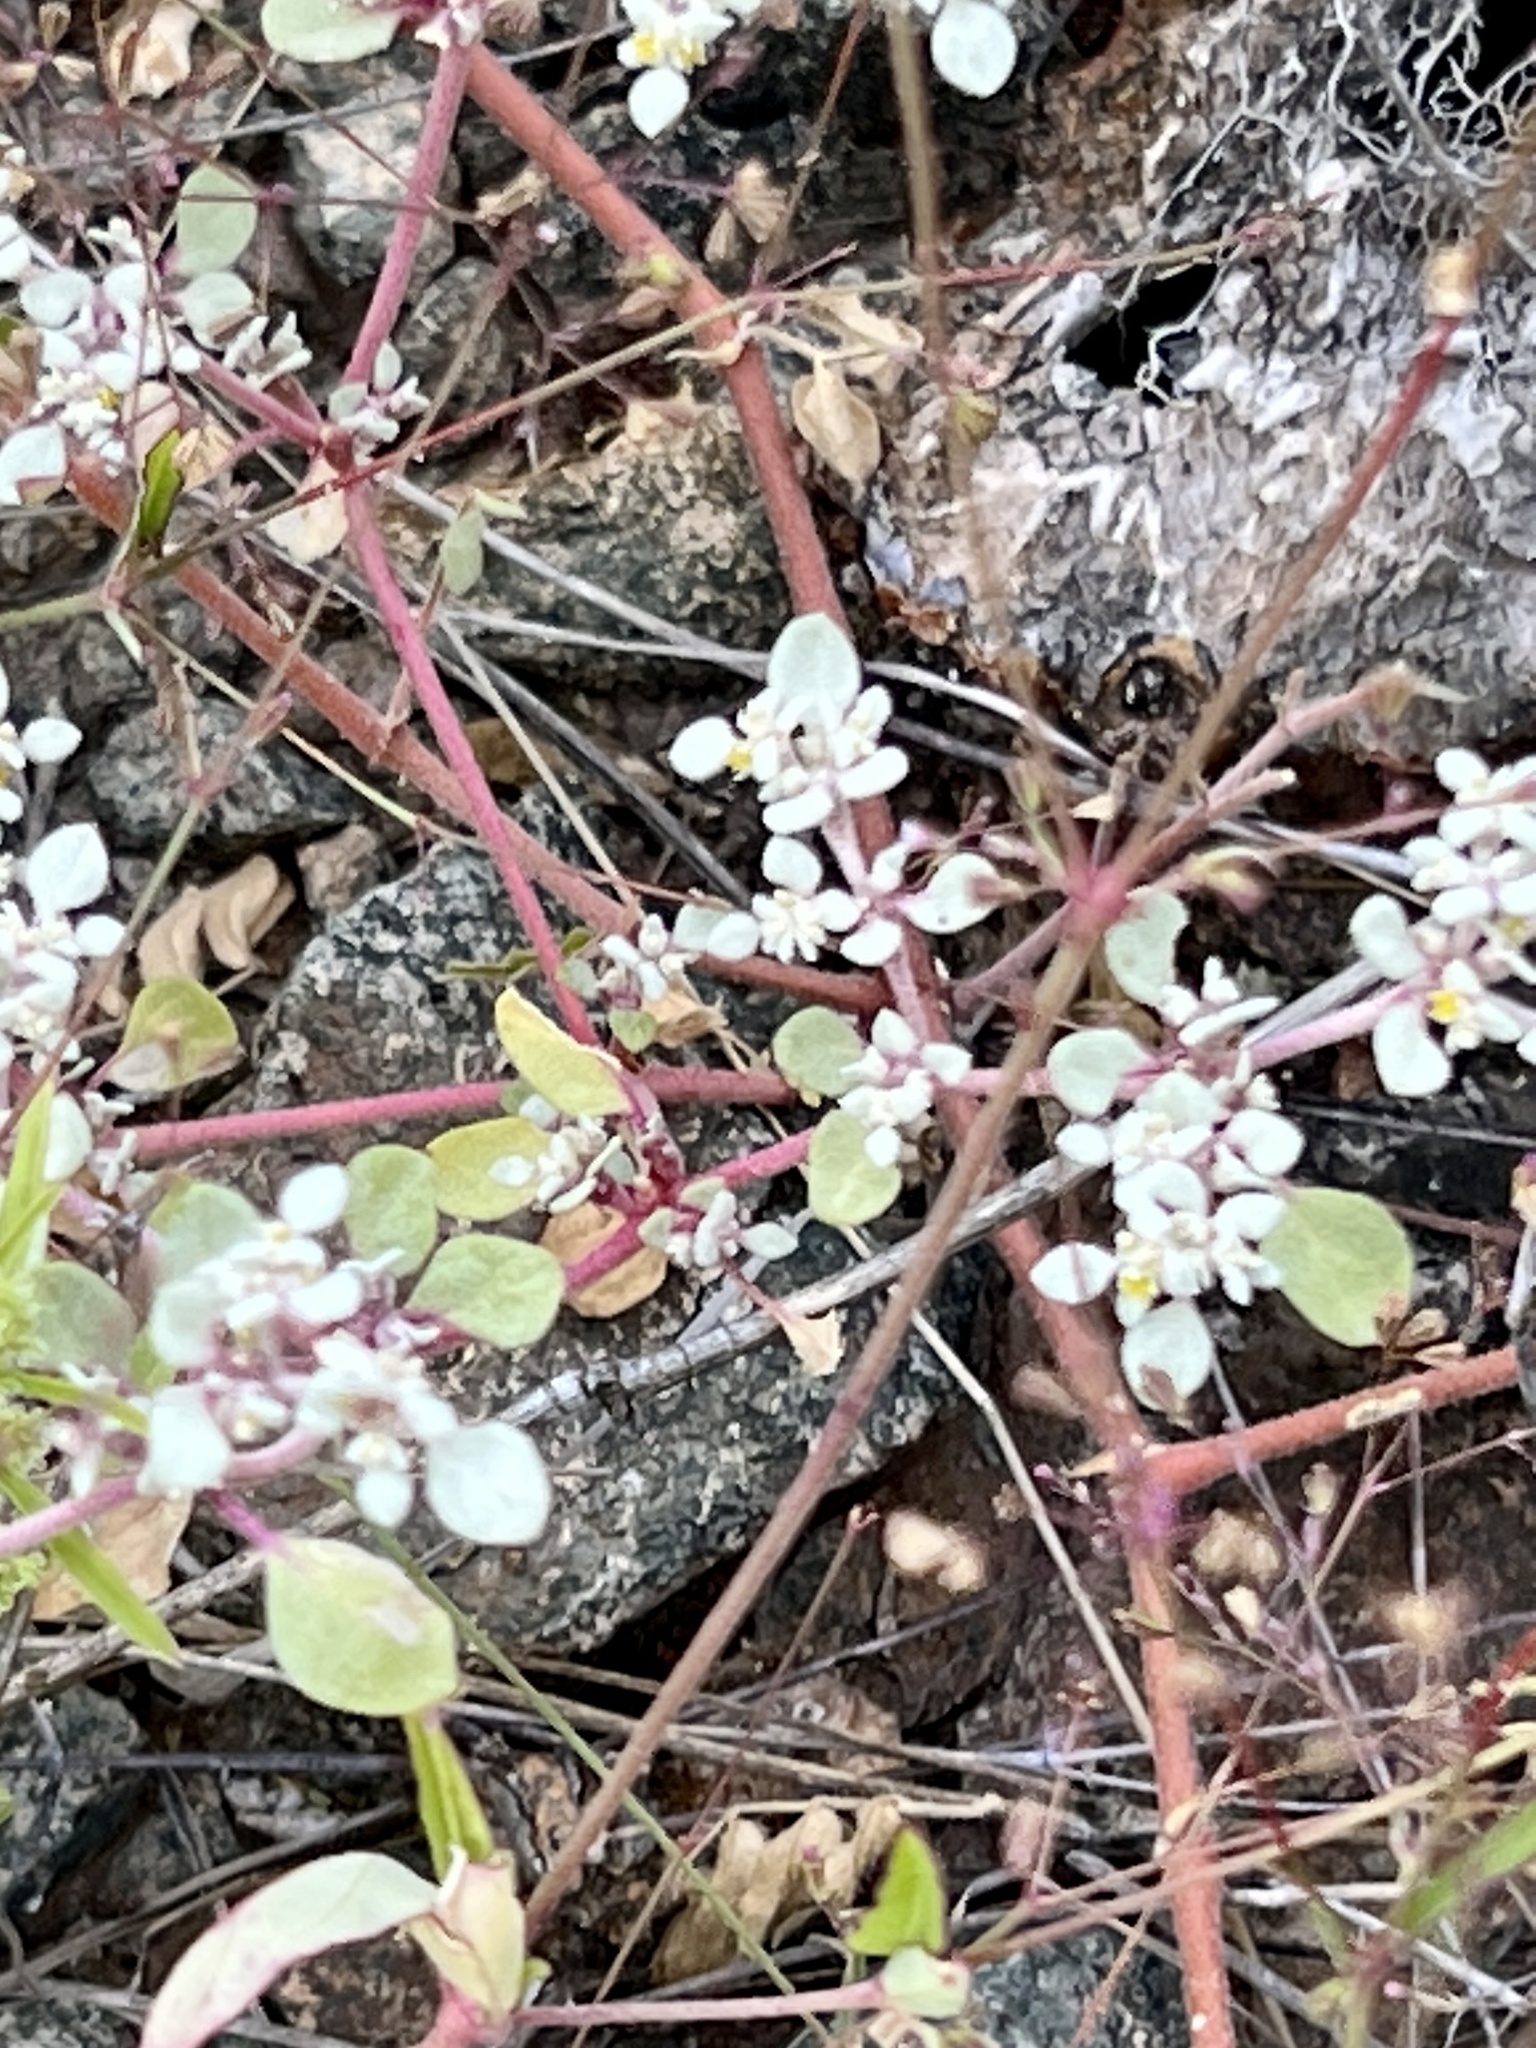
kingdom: Plantae
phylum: Tracheophyta
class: Magnoliopsida
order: Caryophyllales
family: Amaranthaceae
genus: Tidestromia
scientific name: Tidestromia lanuginosa
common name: Woolly tidestromia
